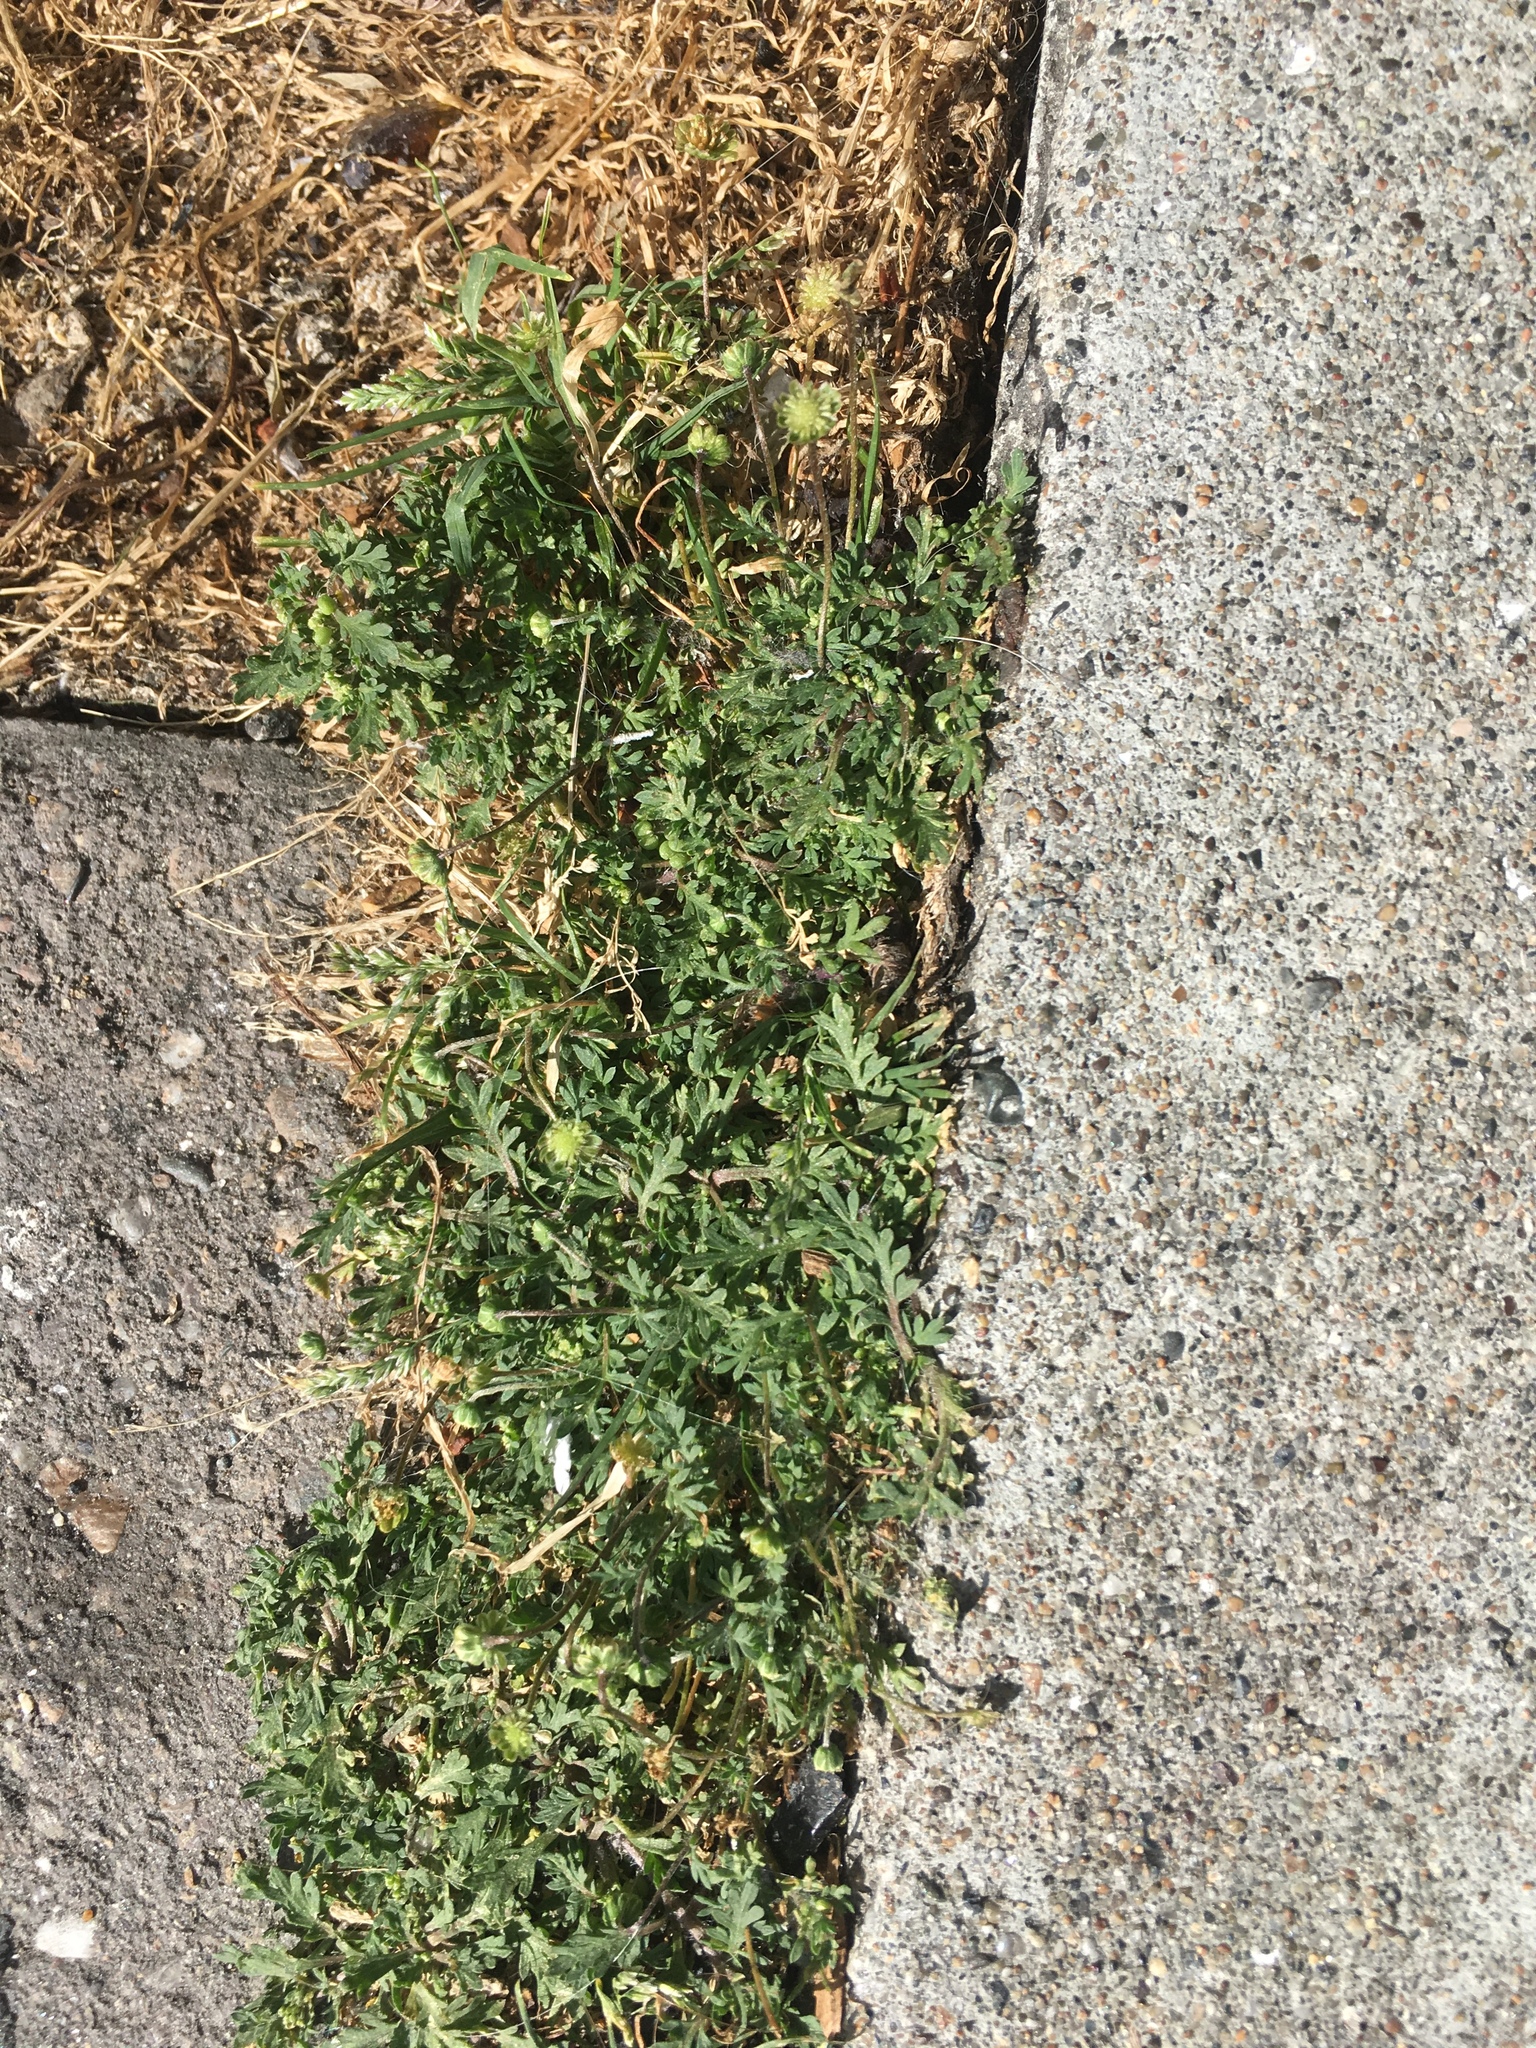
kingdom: Plantae
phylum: Tracheophyta
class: Magnoliopsida
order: Asterales
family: Asteraceae
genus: Cotula
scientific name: Cotula australis
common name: Australian waterbuttons
